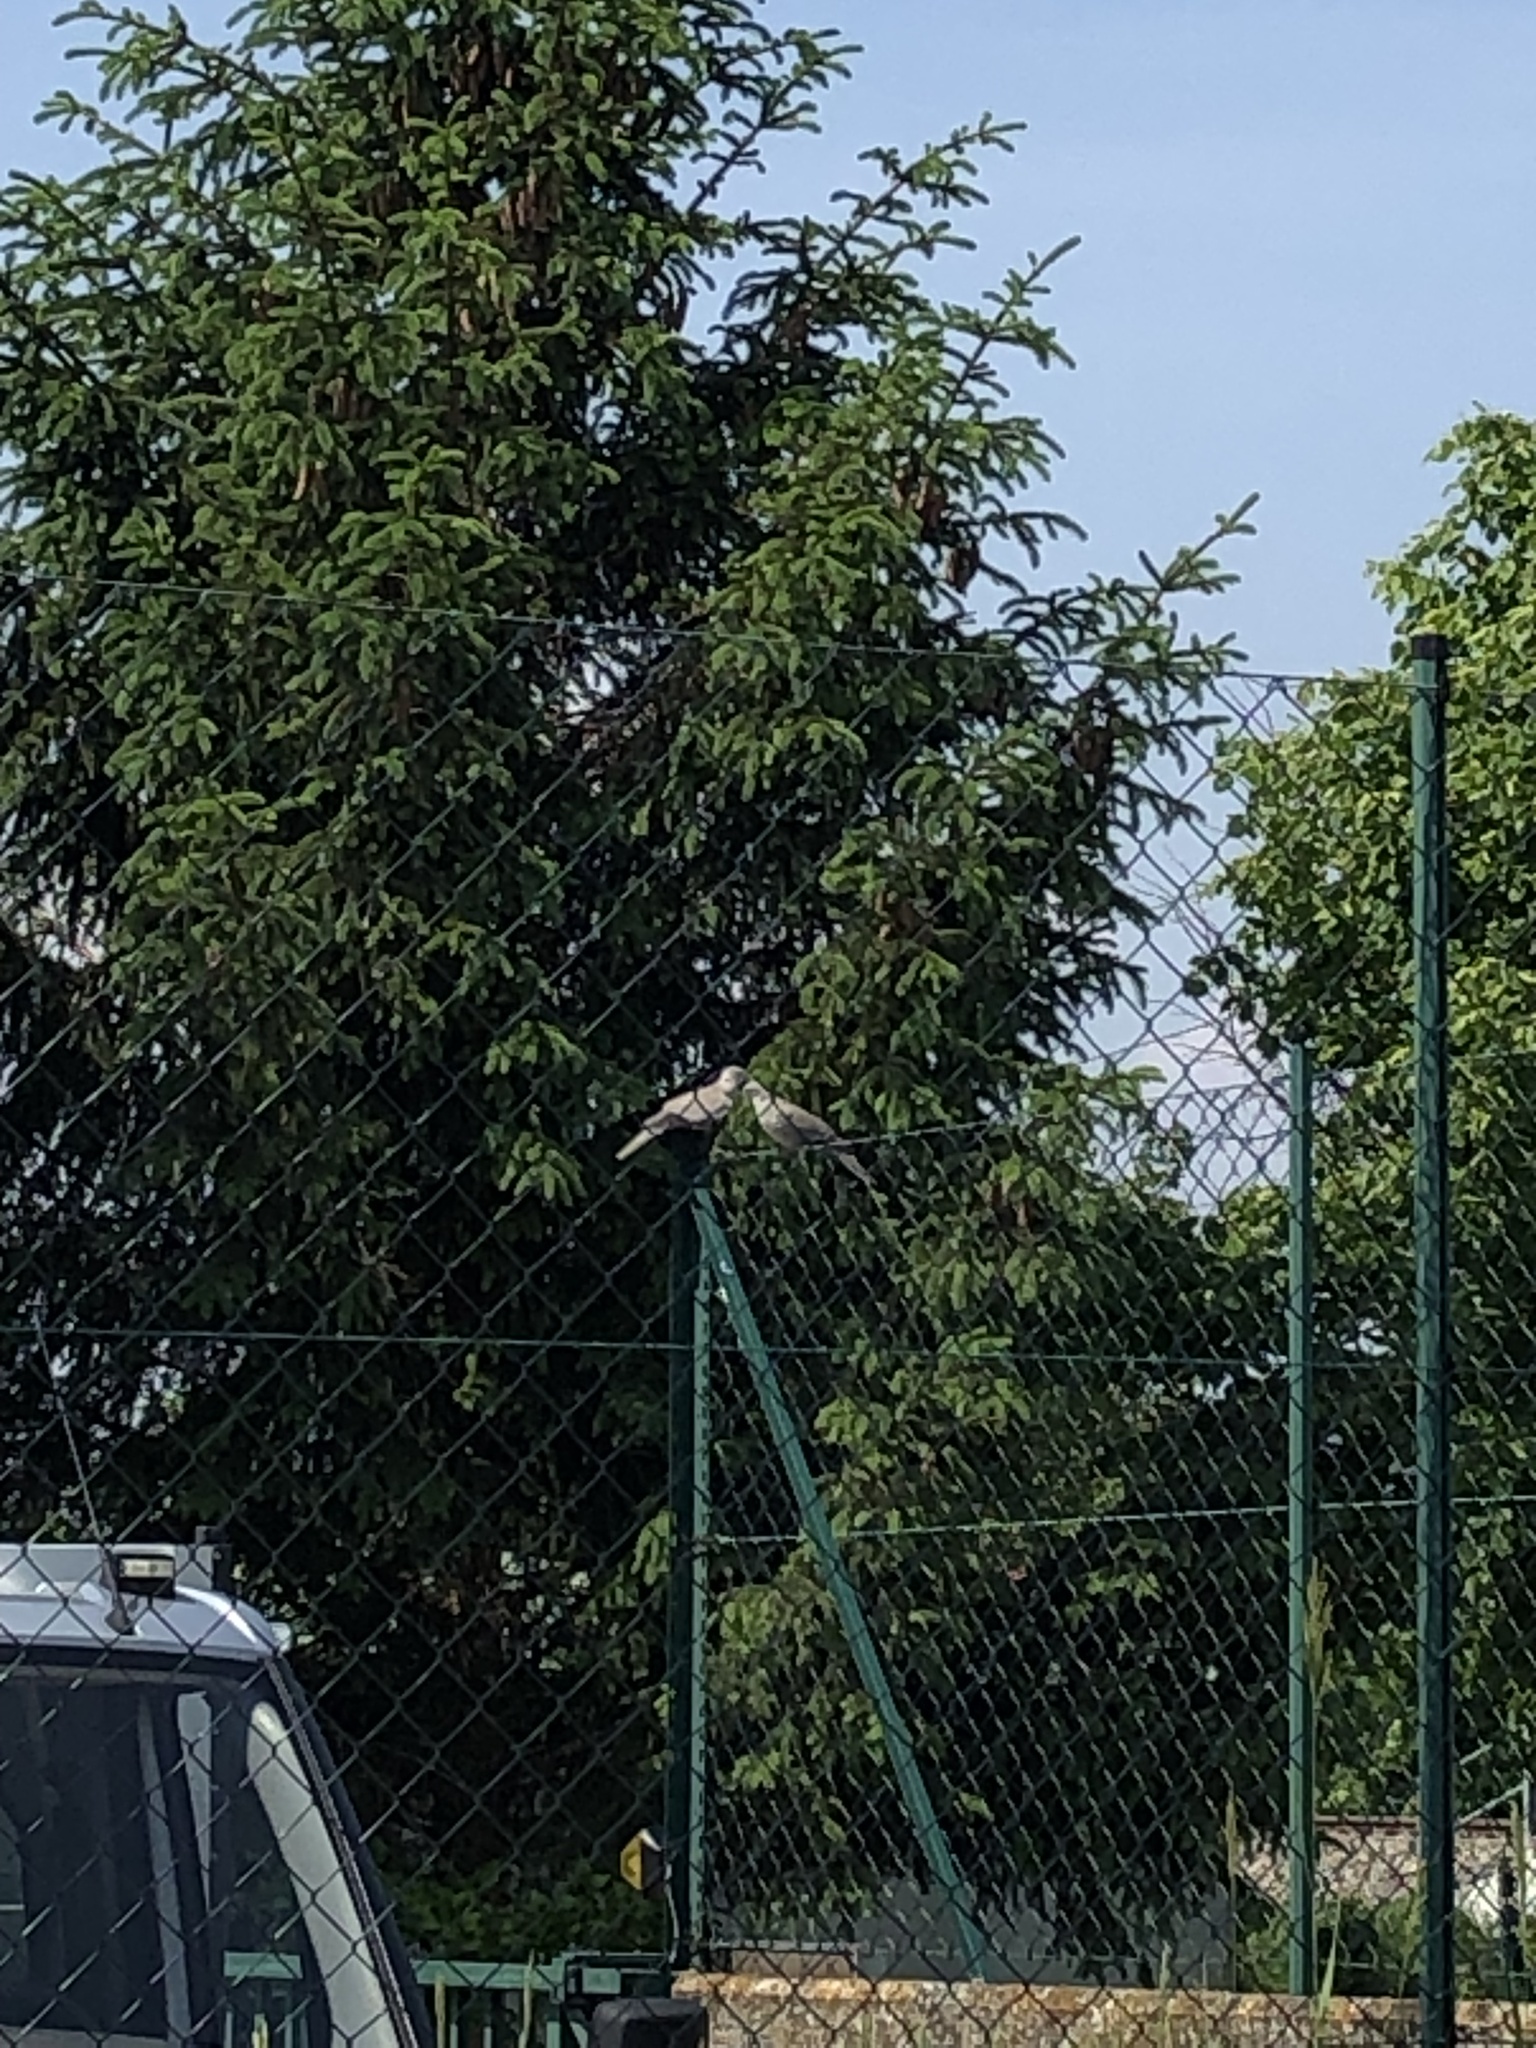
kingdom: Animalia
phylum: Chordata
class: Aves
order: Columbiformes
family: Columbidae
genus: Streptopelia
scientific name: Streptopelia decaocto
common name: Eurasian collared dove
